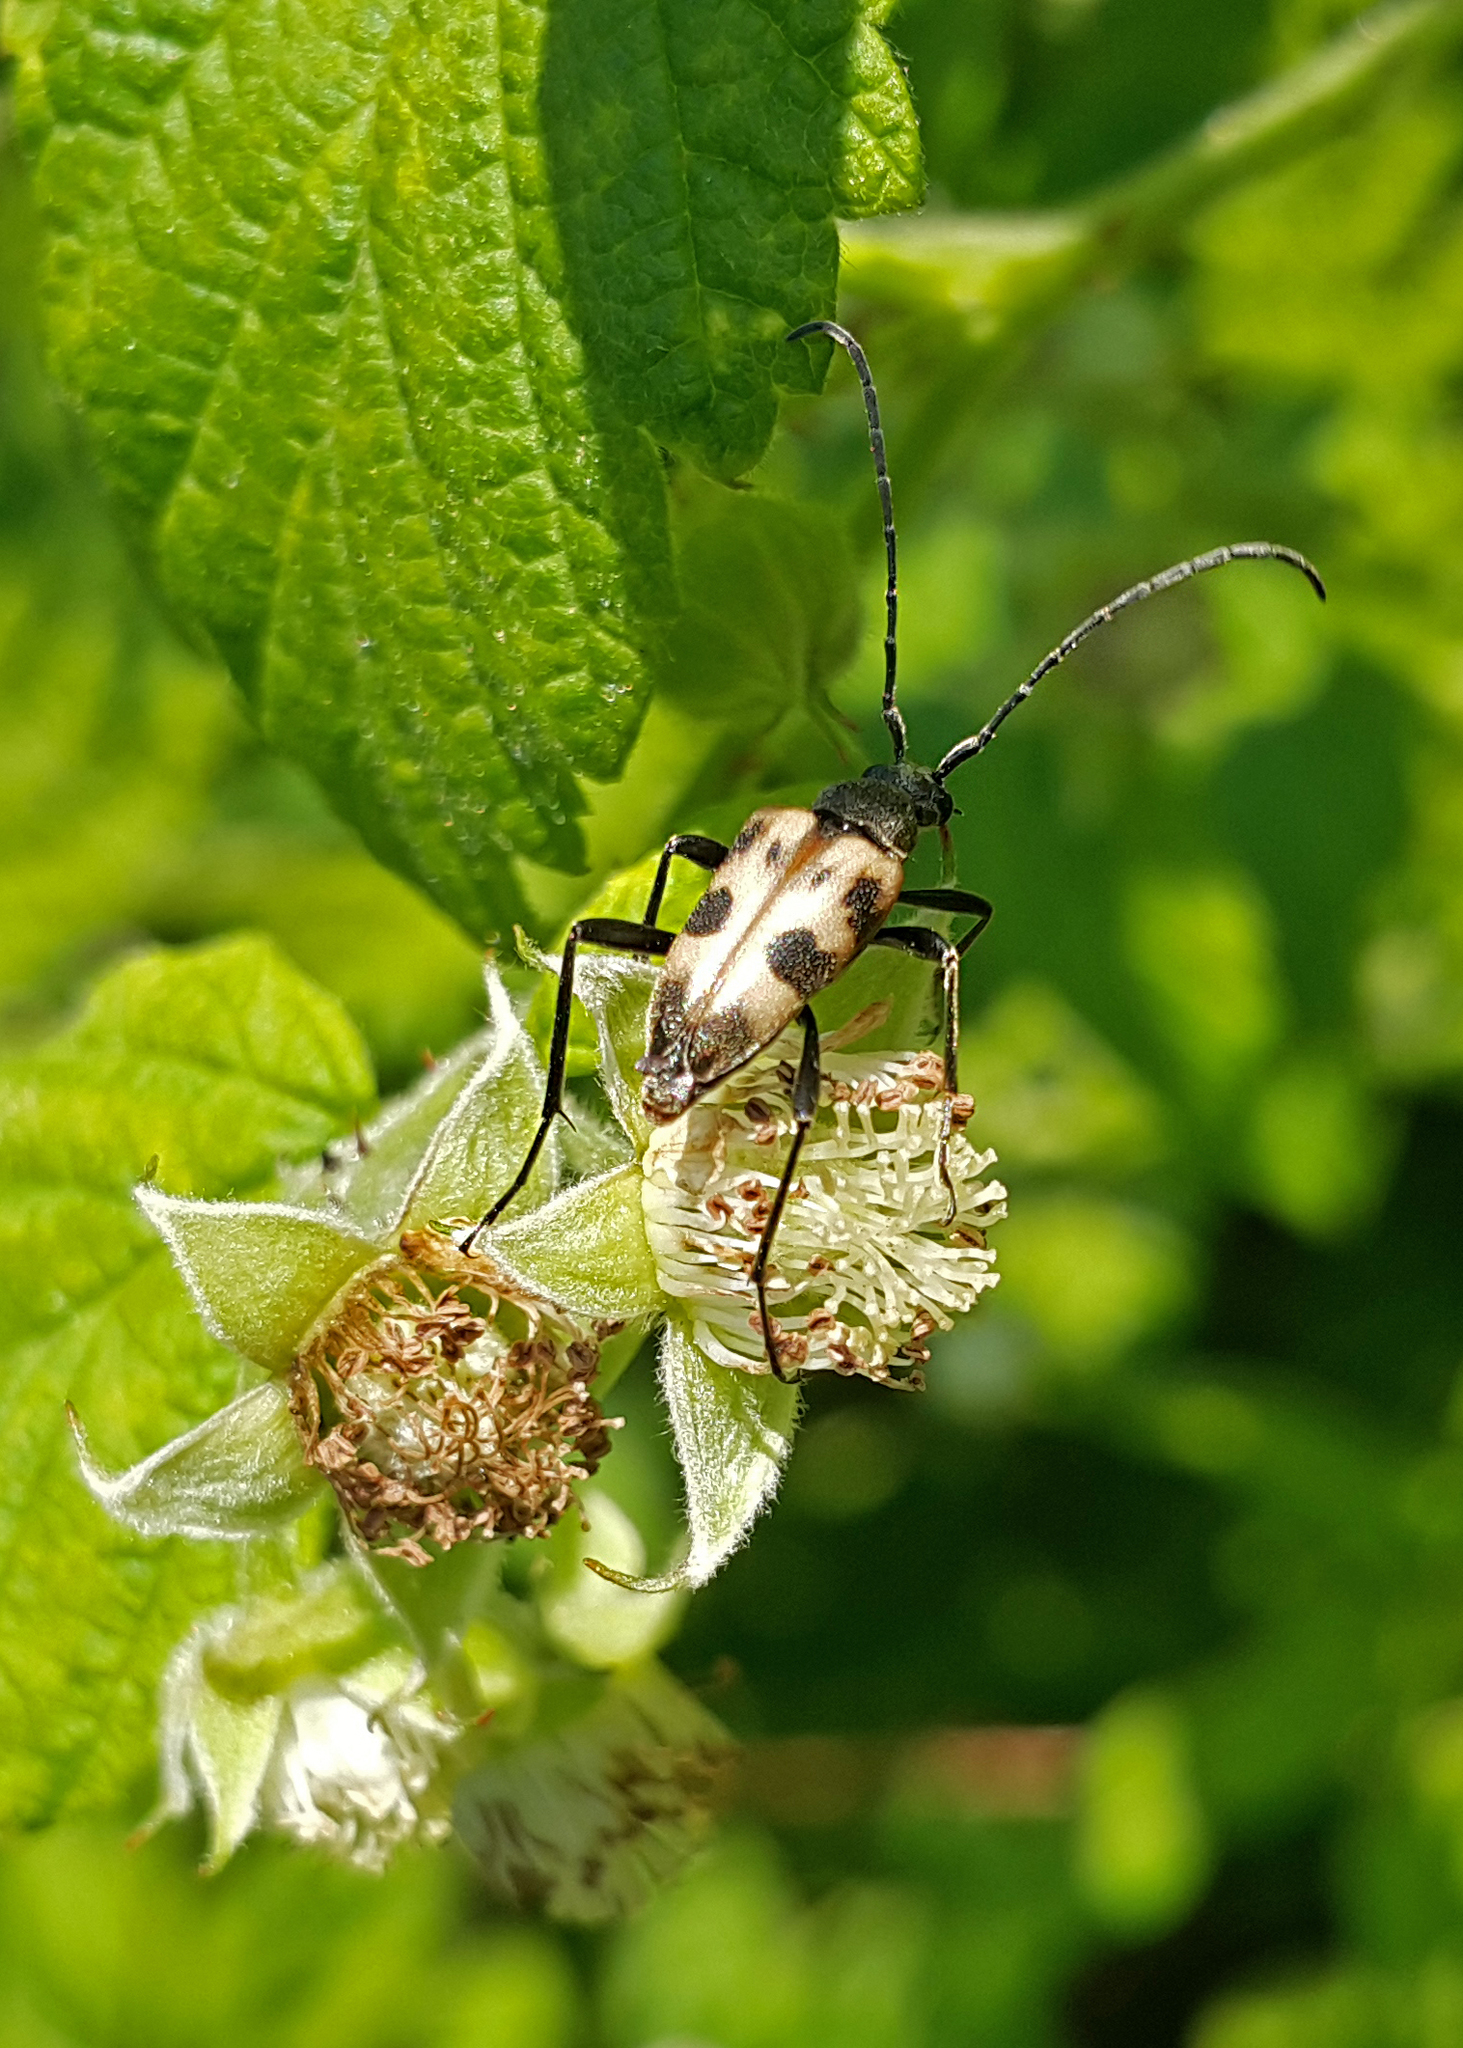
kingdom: Animalia
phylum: Arthropoda
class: Insecta
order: Coleoptera
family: Cerambycidae
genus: Pachytodes
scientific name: Pachytodes cerambyciformis
